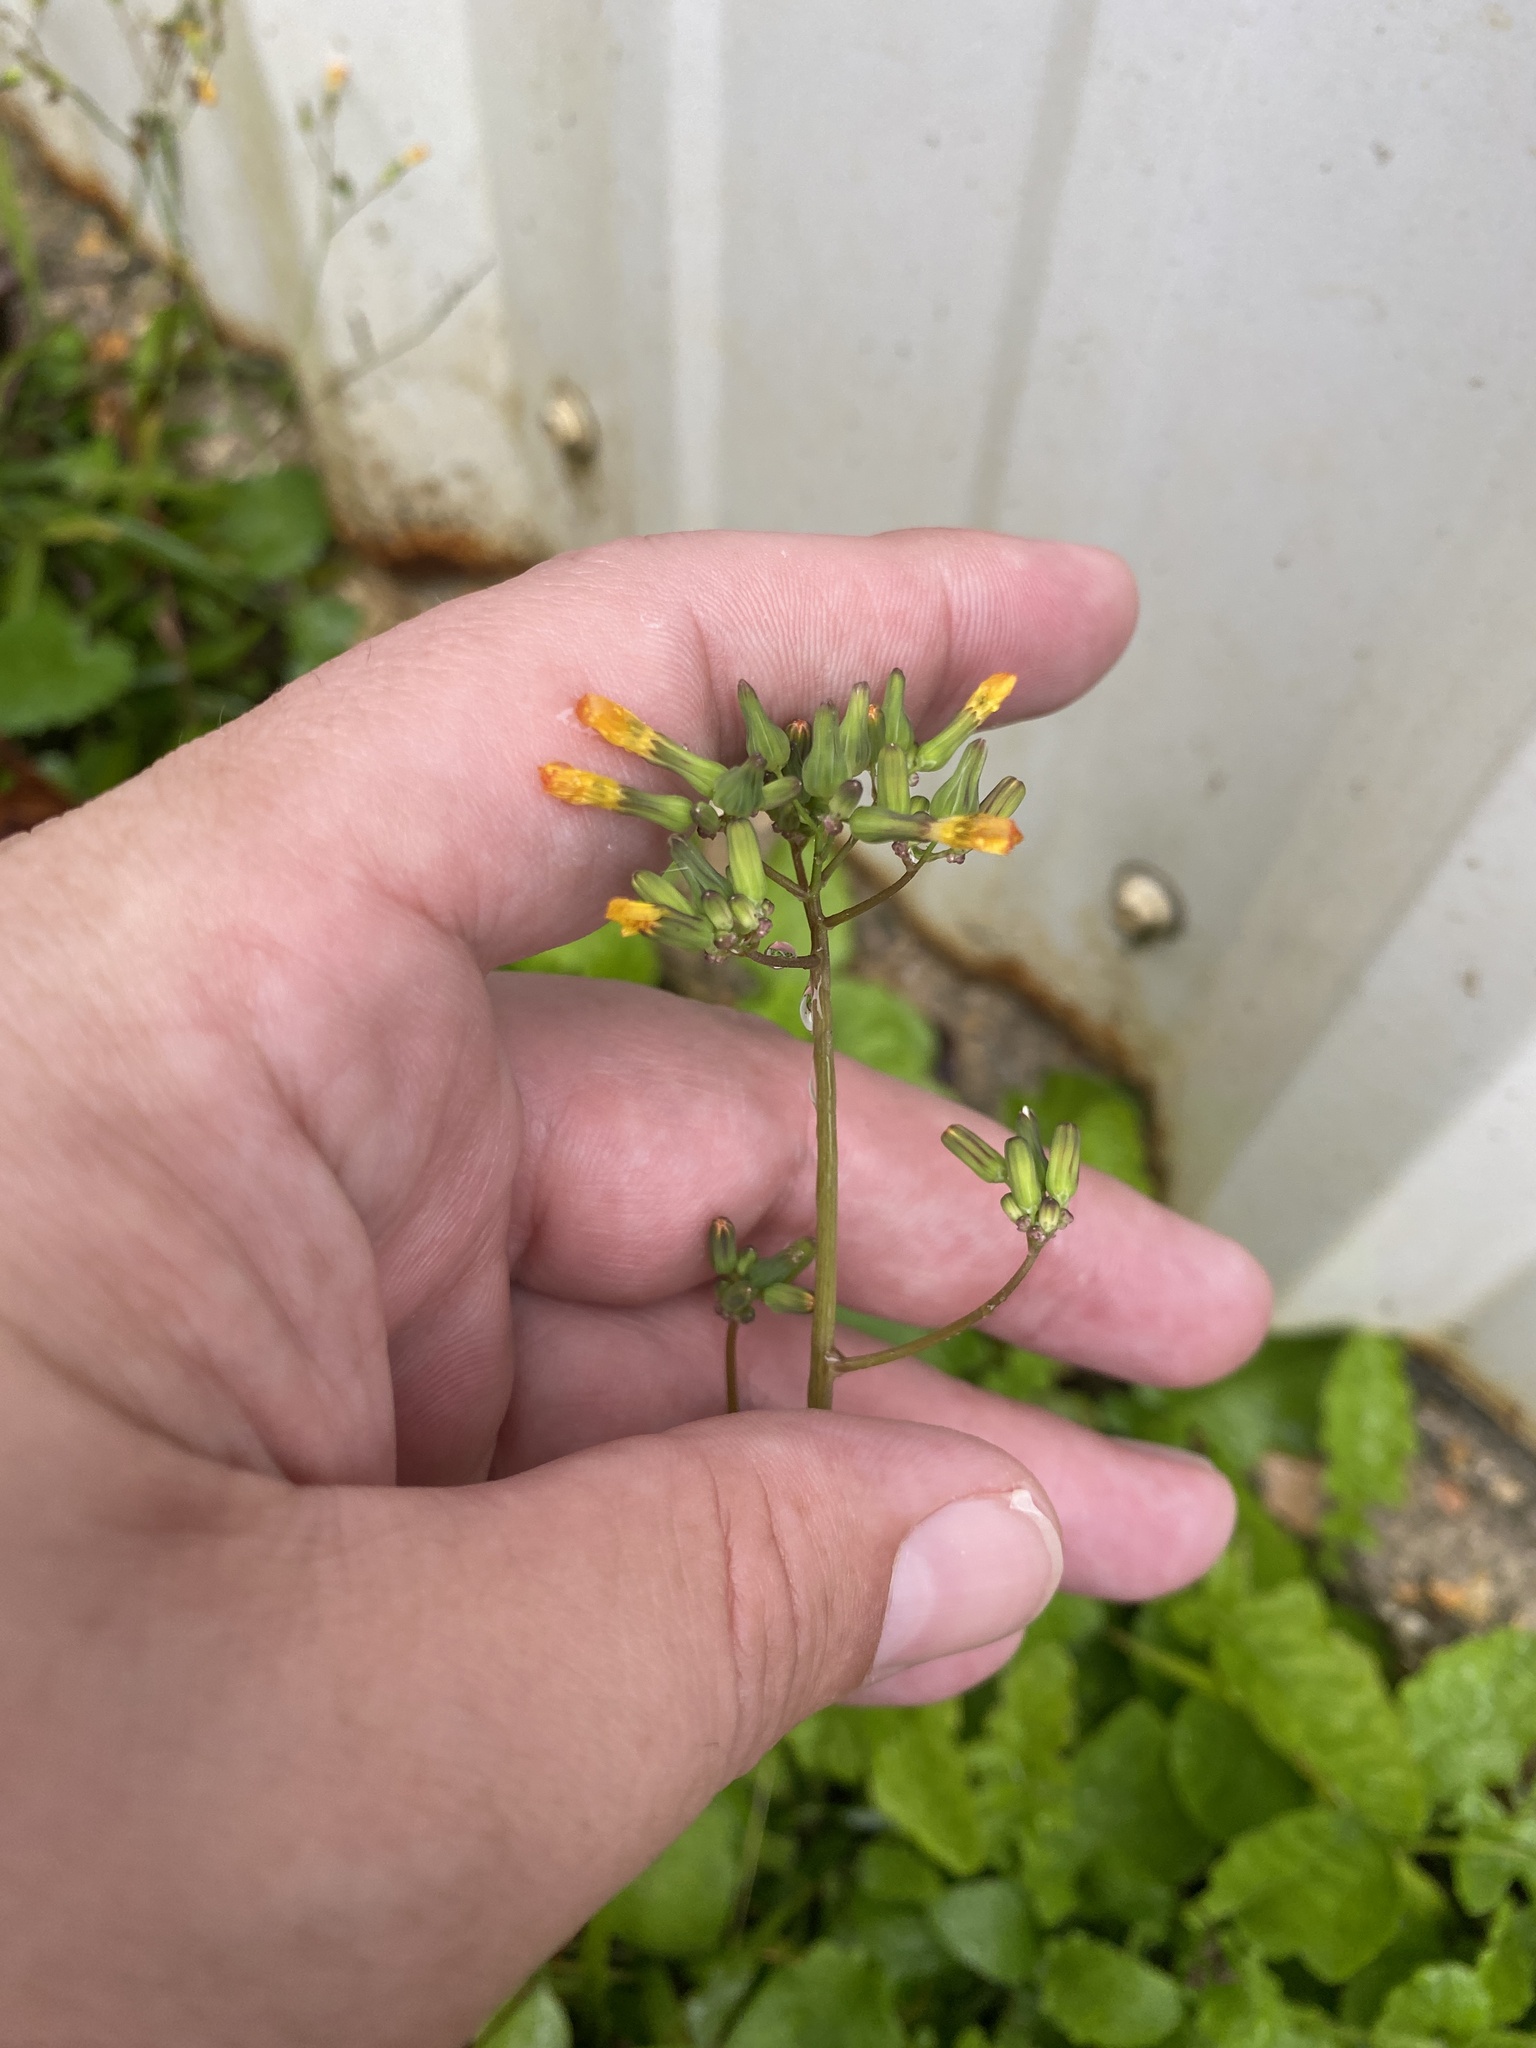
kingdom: Plantae
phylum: Tracheophyta
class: Magnoliopsida
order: Asterales
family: Asteraceae
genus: Youngia
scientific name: Youngia japonica
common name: Oriental false hawksbeard
